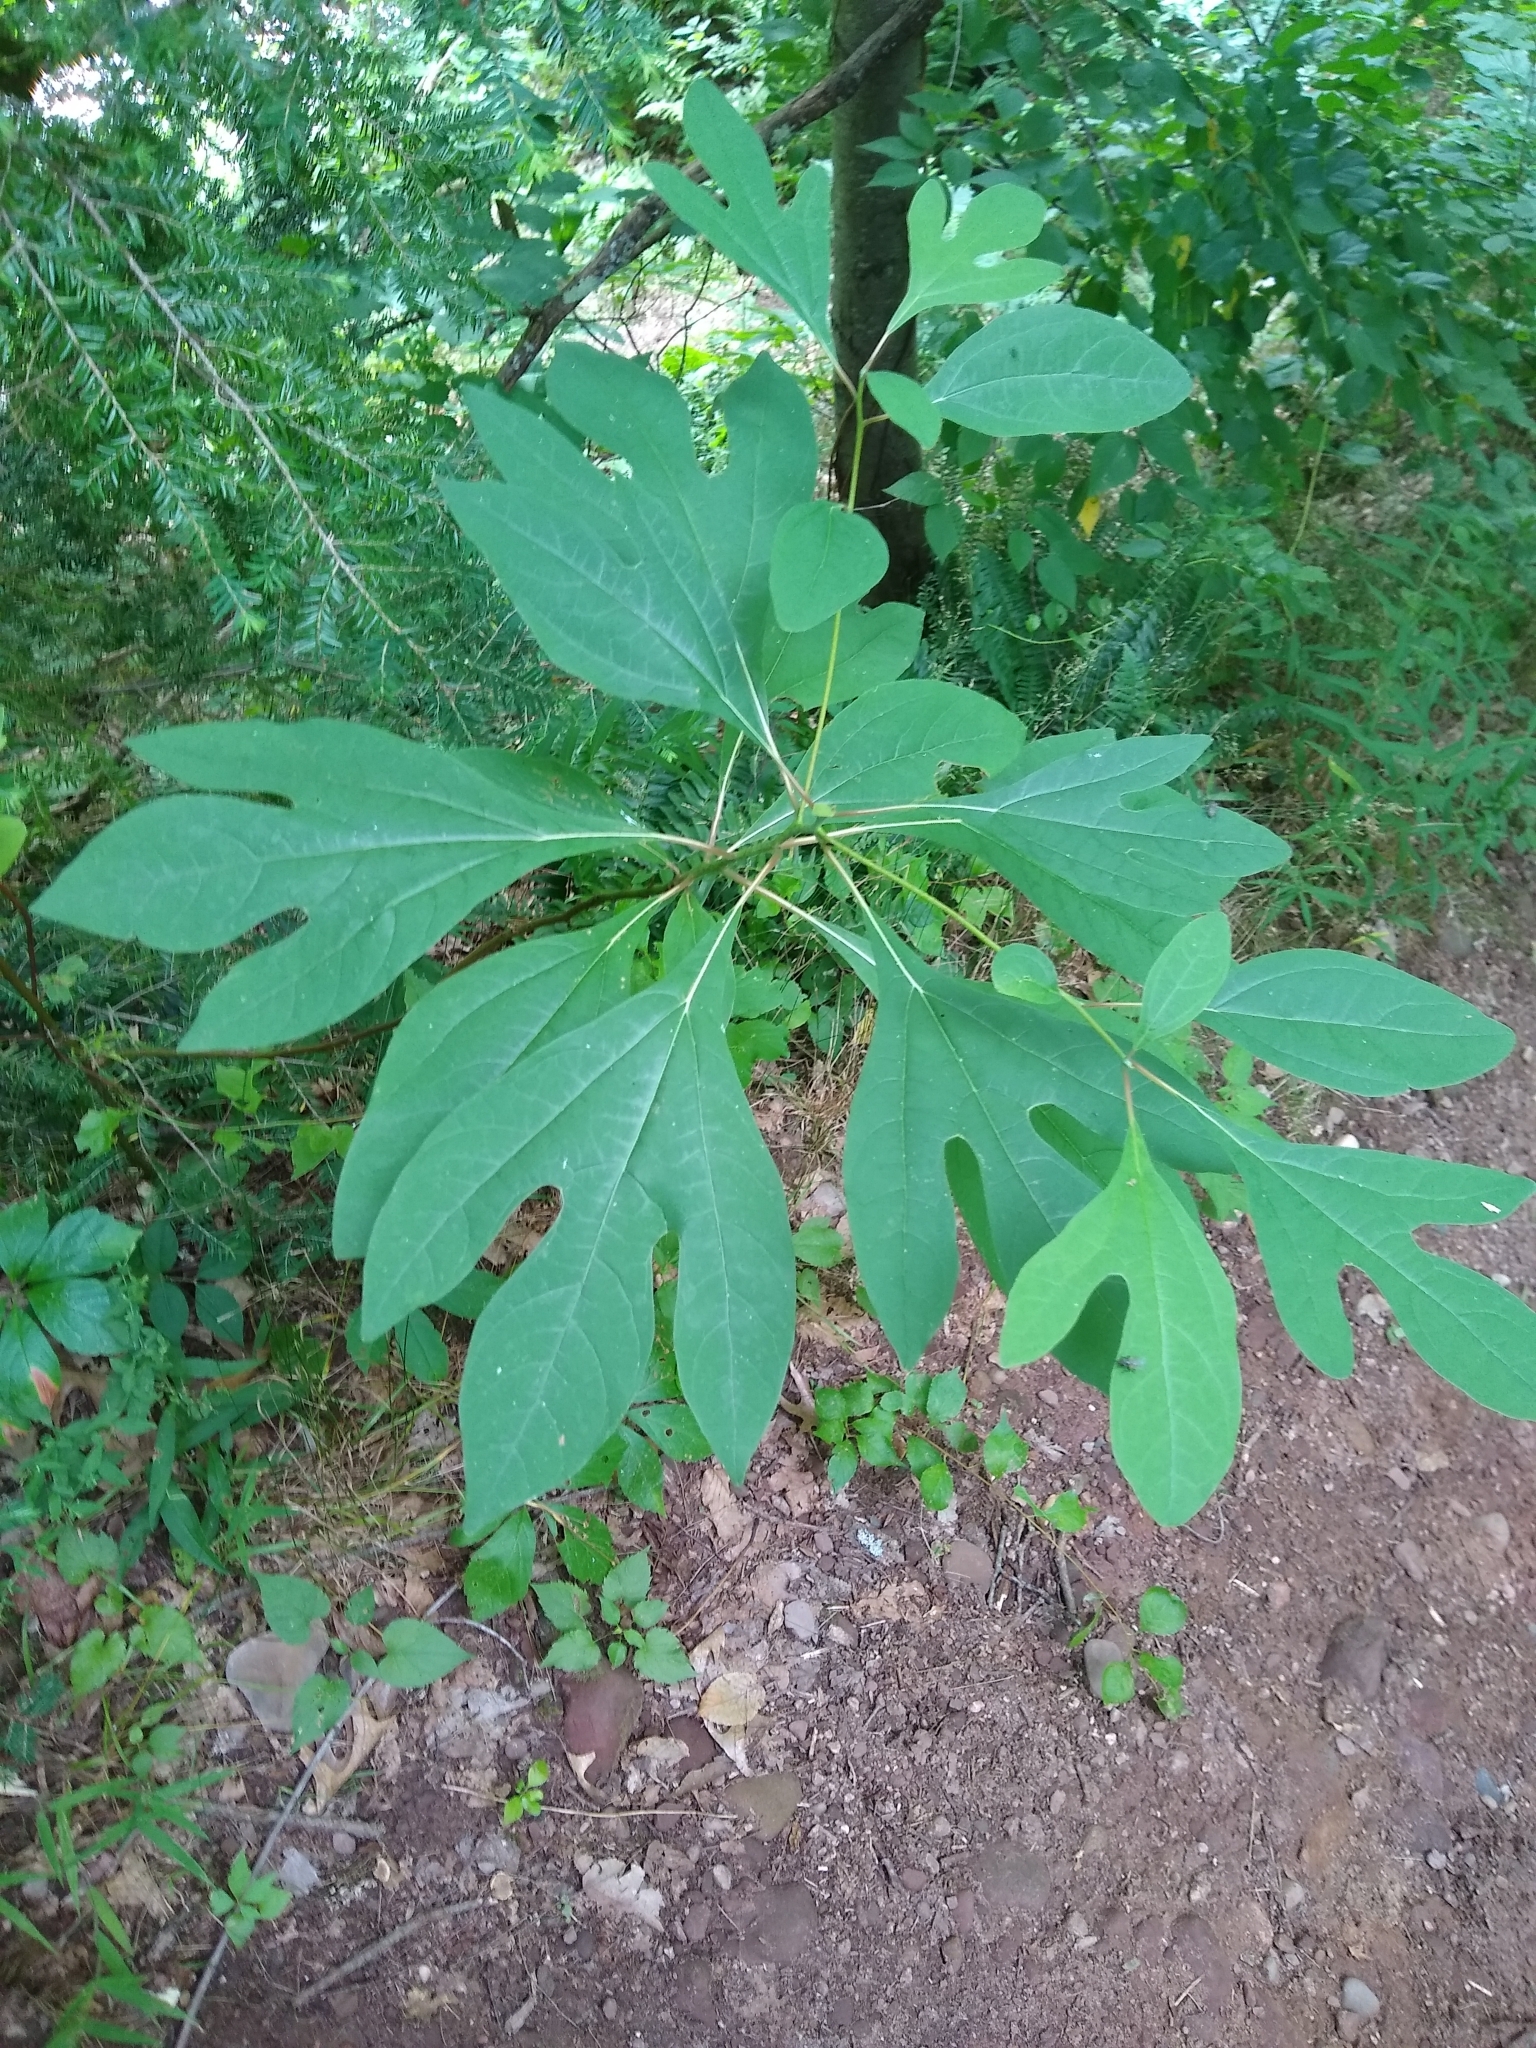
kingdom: Plantae
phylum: Tracheophyta
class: Magnoliopsida
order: Laurales
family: Lauraceae
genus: Sassafras
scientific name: Sassafras albidum
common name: Sassafras
